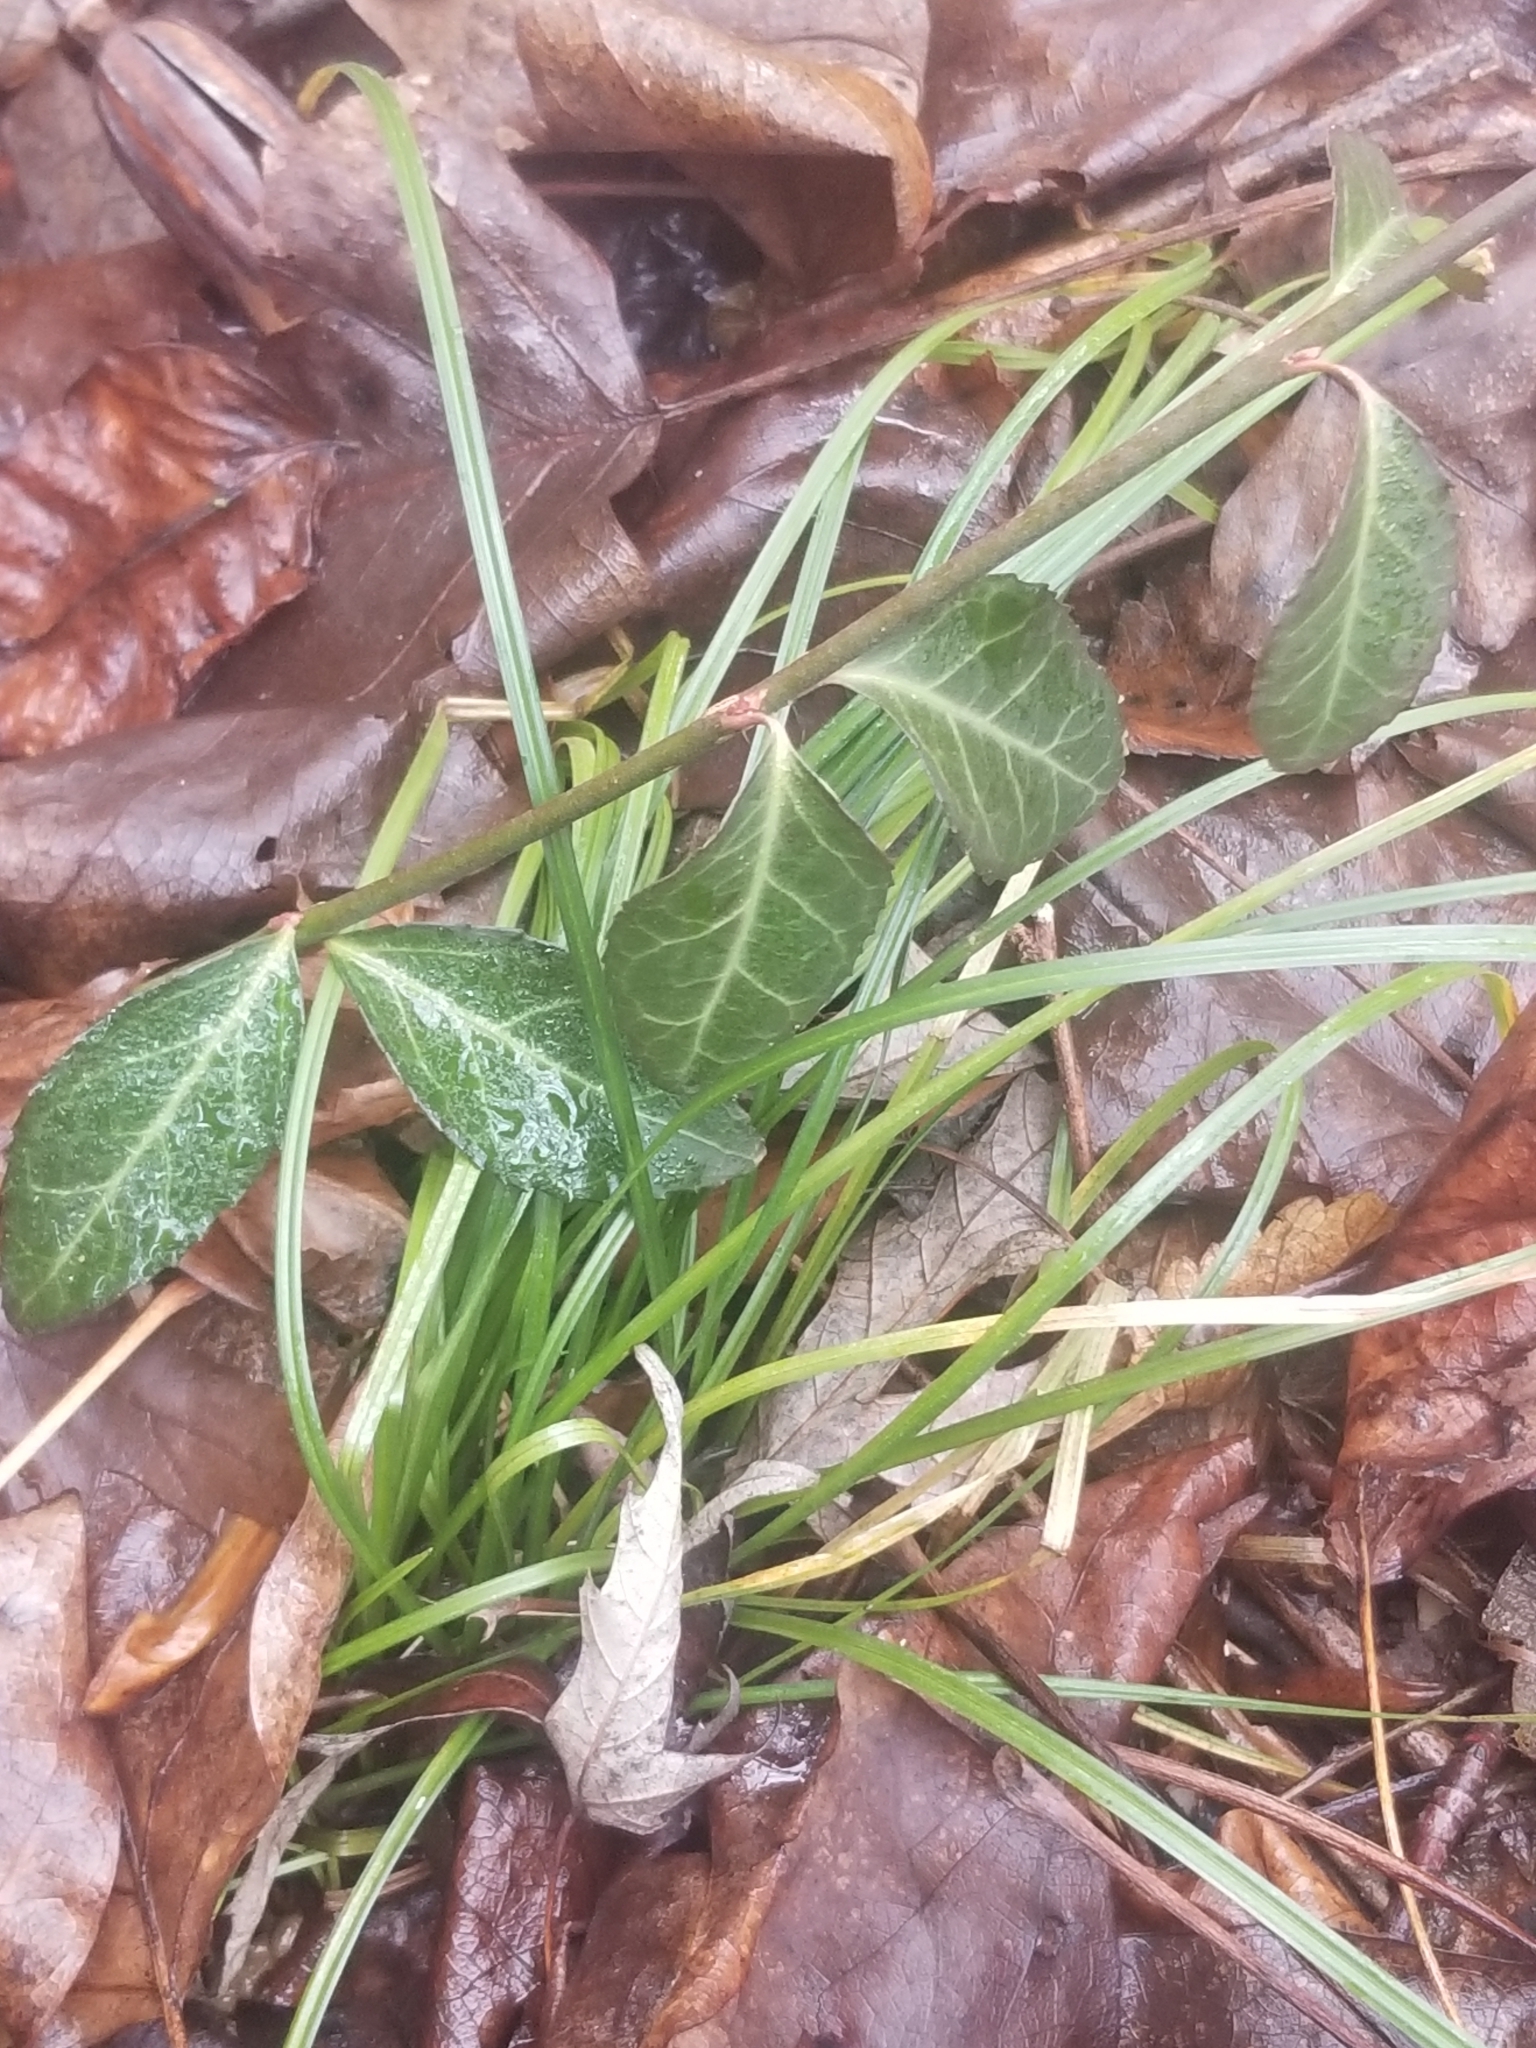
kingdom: Plantae
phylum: Tracheophyta
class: Magnoliopsida
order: Celastrales
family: Celastraceae
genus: Euonymus
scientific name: Euonymus fortunei
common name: Climbing euonymus
